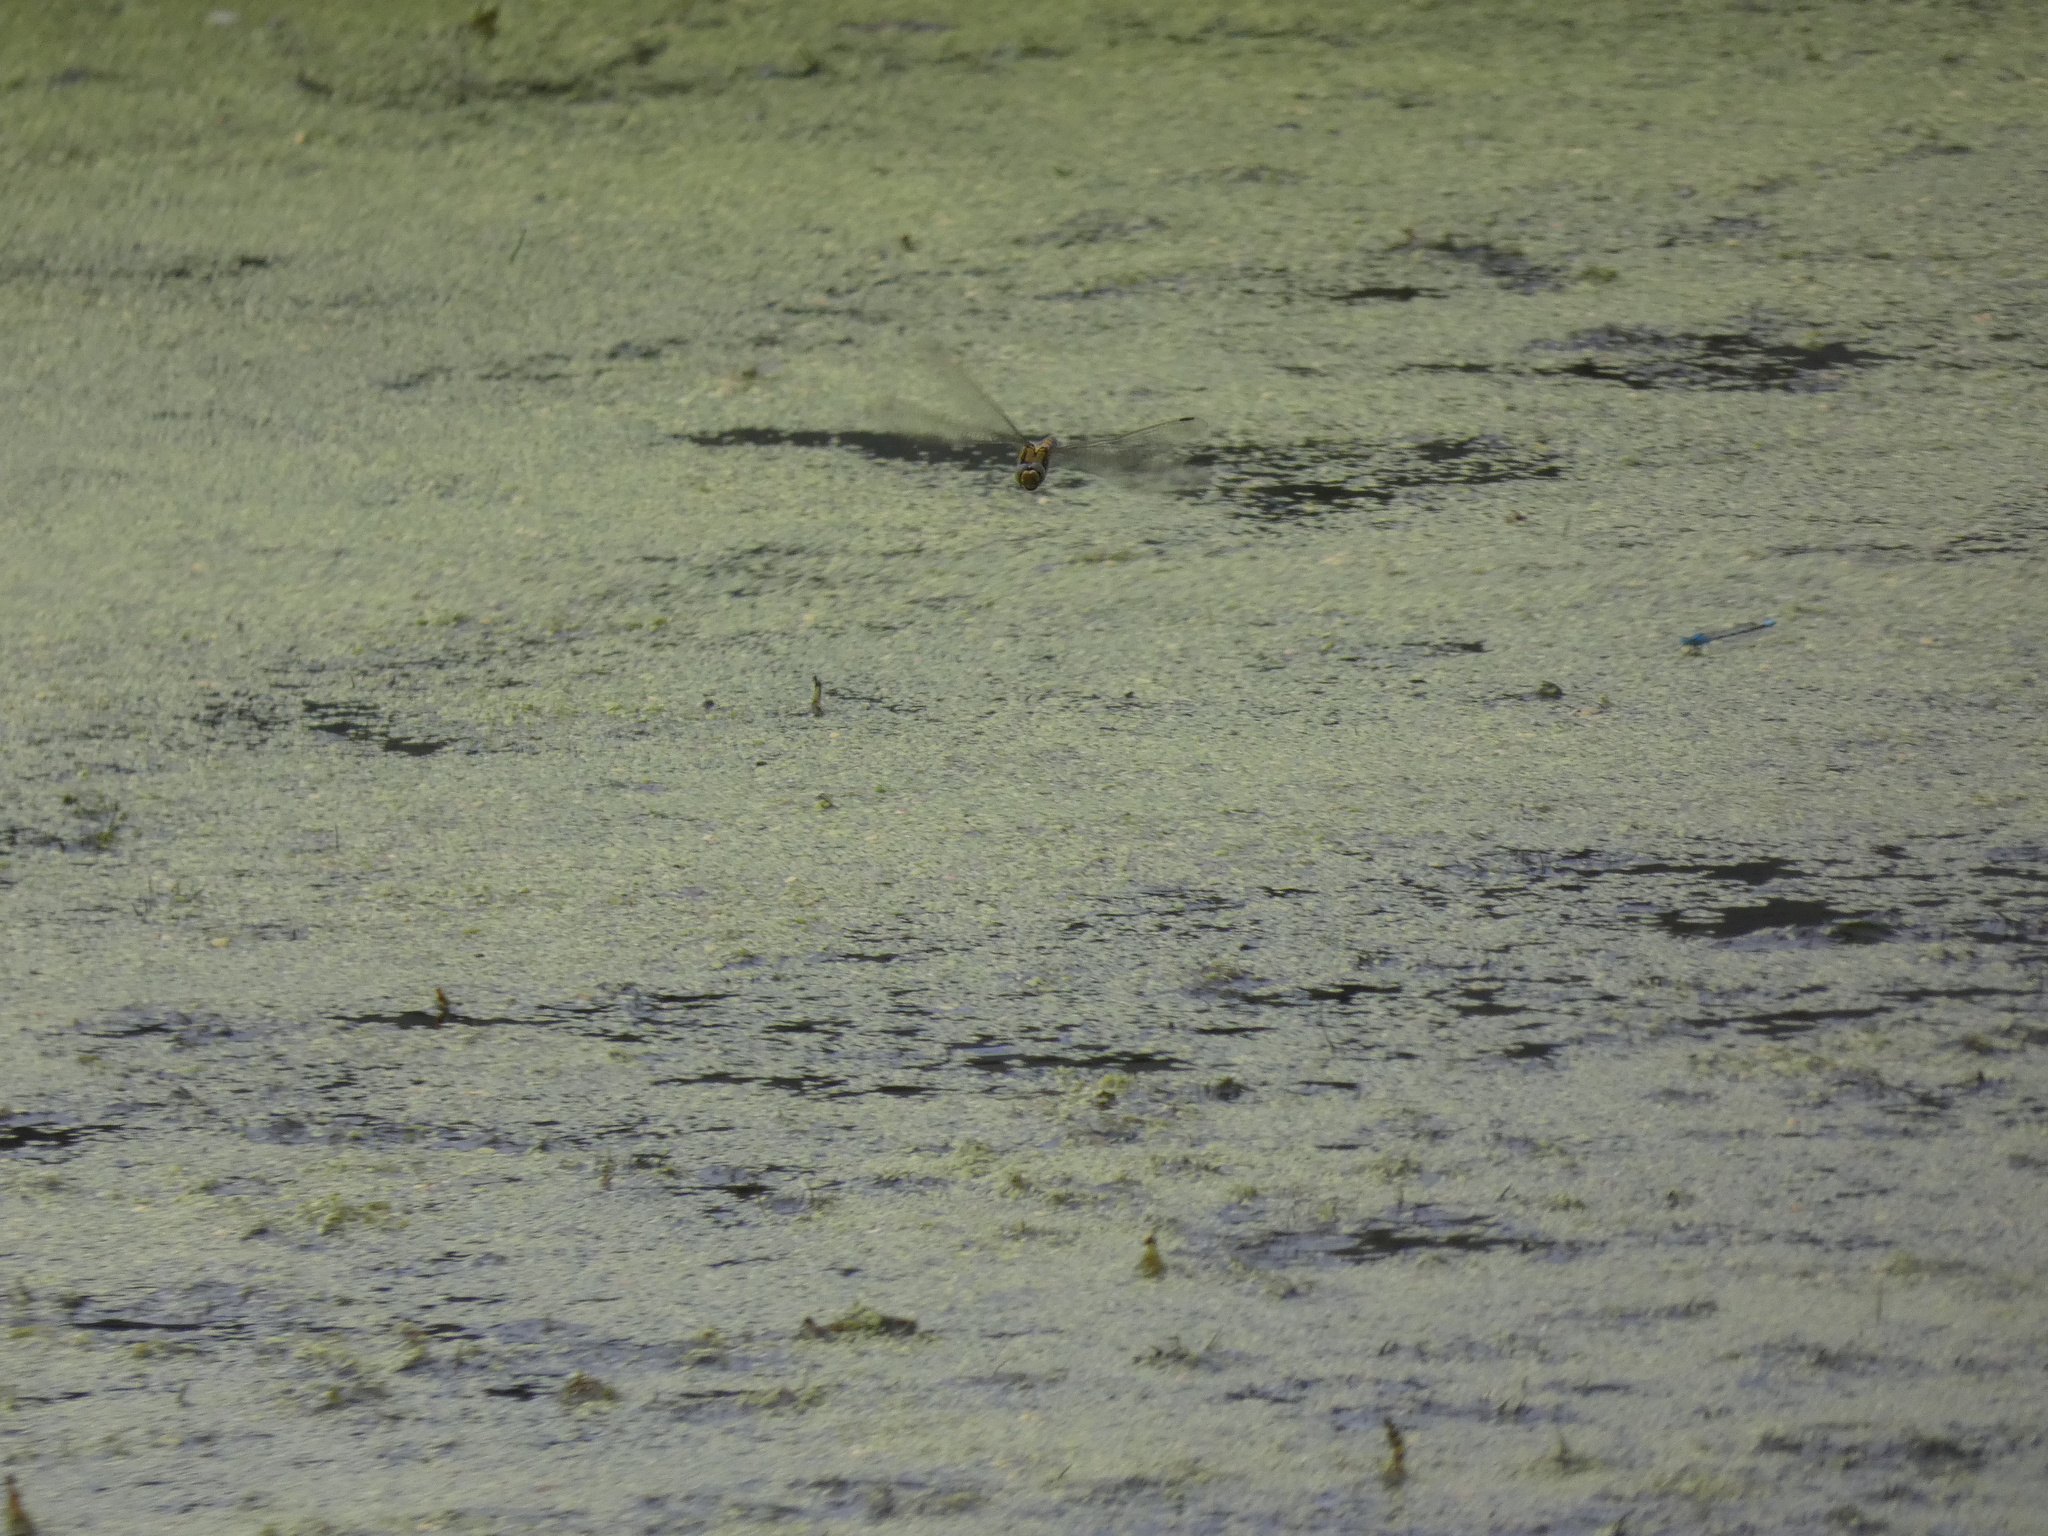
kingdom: Animalia
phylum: Arthropoda
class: Insecta
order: Odonata
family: Libellulidae
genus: Orthetrum
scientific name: Orthetrum cancellatum
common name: Black-tailed skimmer
